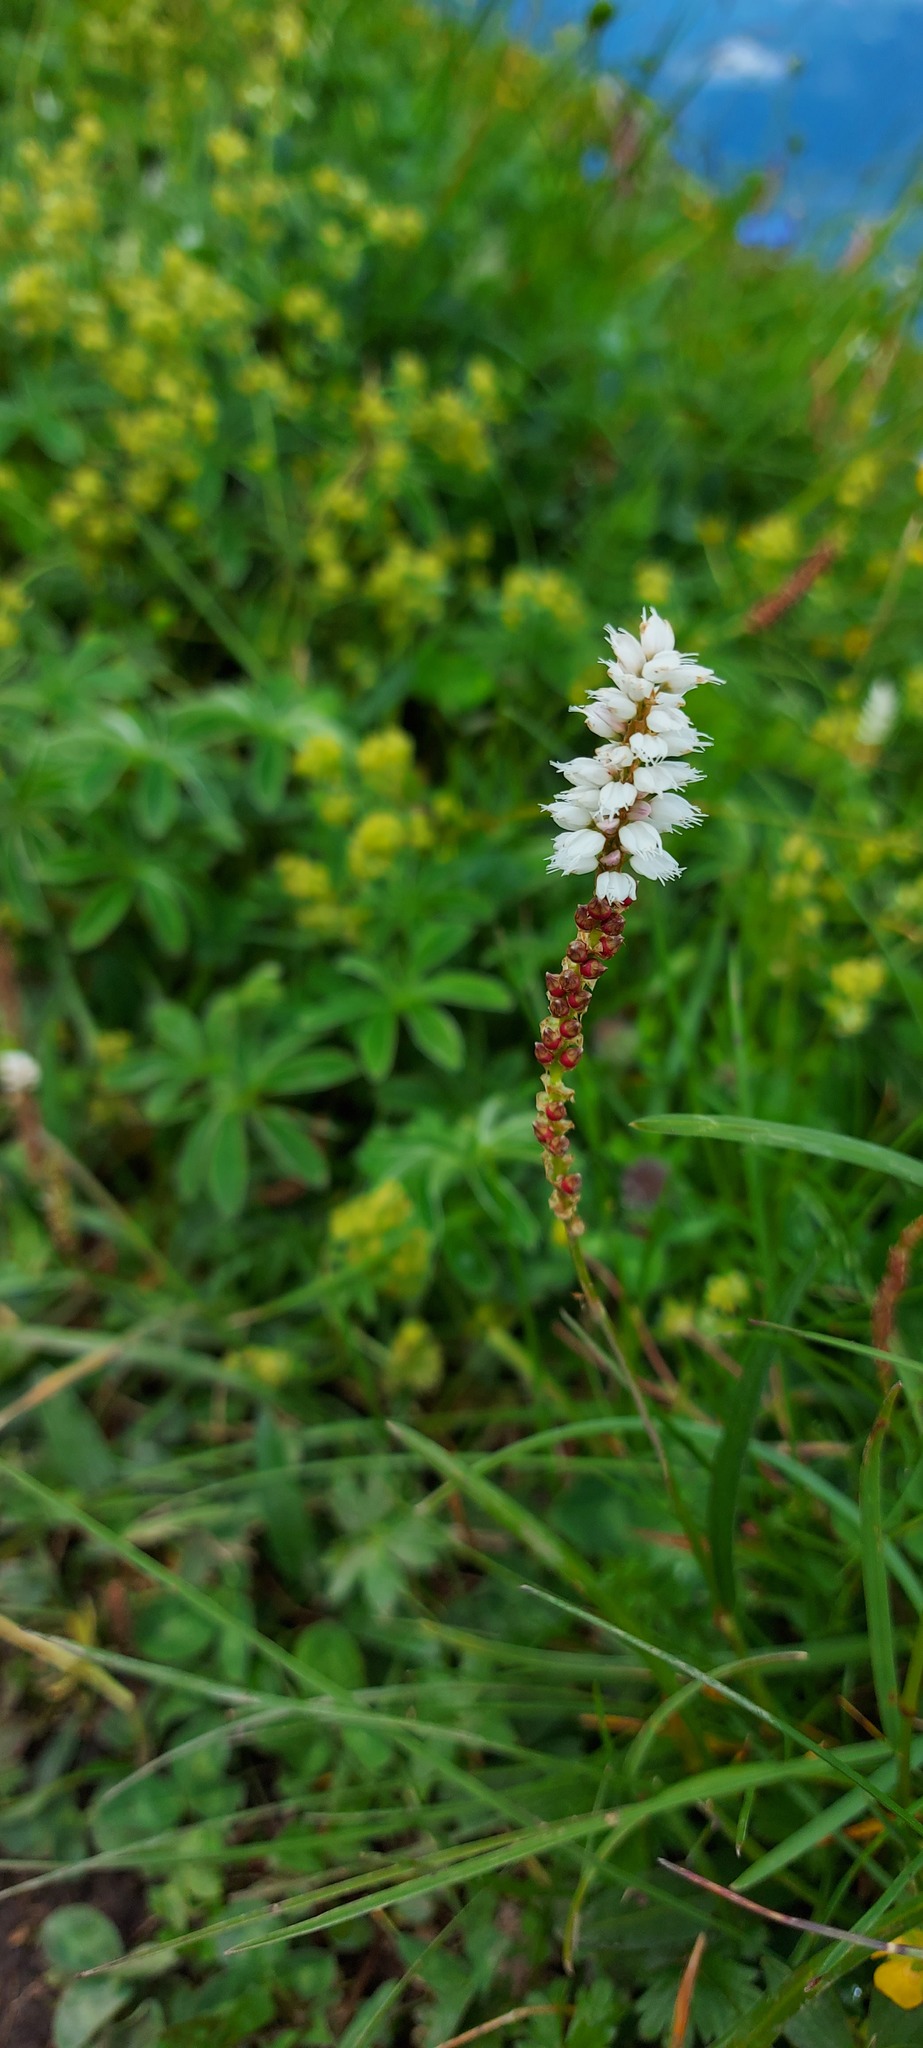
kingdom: Plantae
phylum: Tracheophyta
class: Magnoliopsida
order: Caryophyllales
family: Polygonaceae
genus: Bistorta
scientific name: Bistorta vivipara
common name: Alpine bistort
